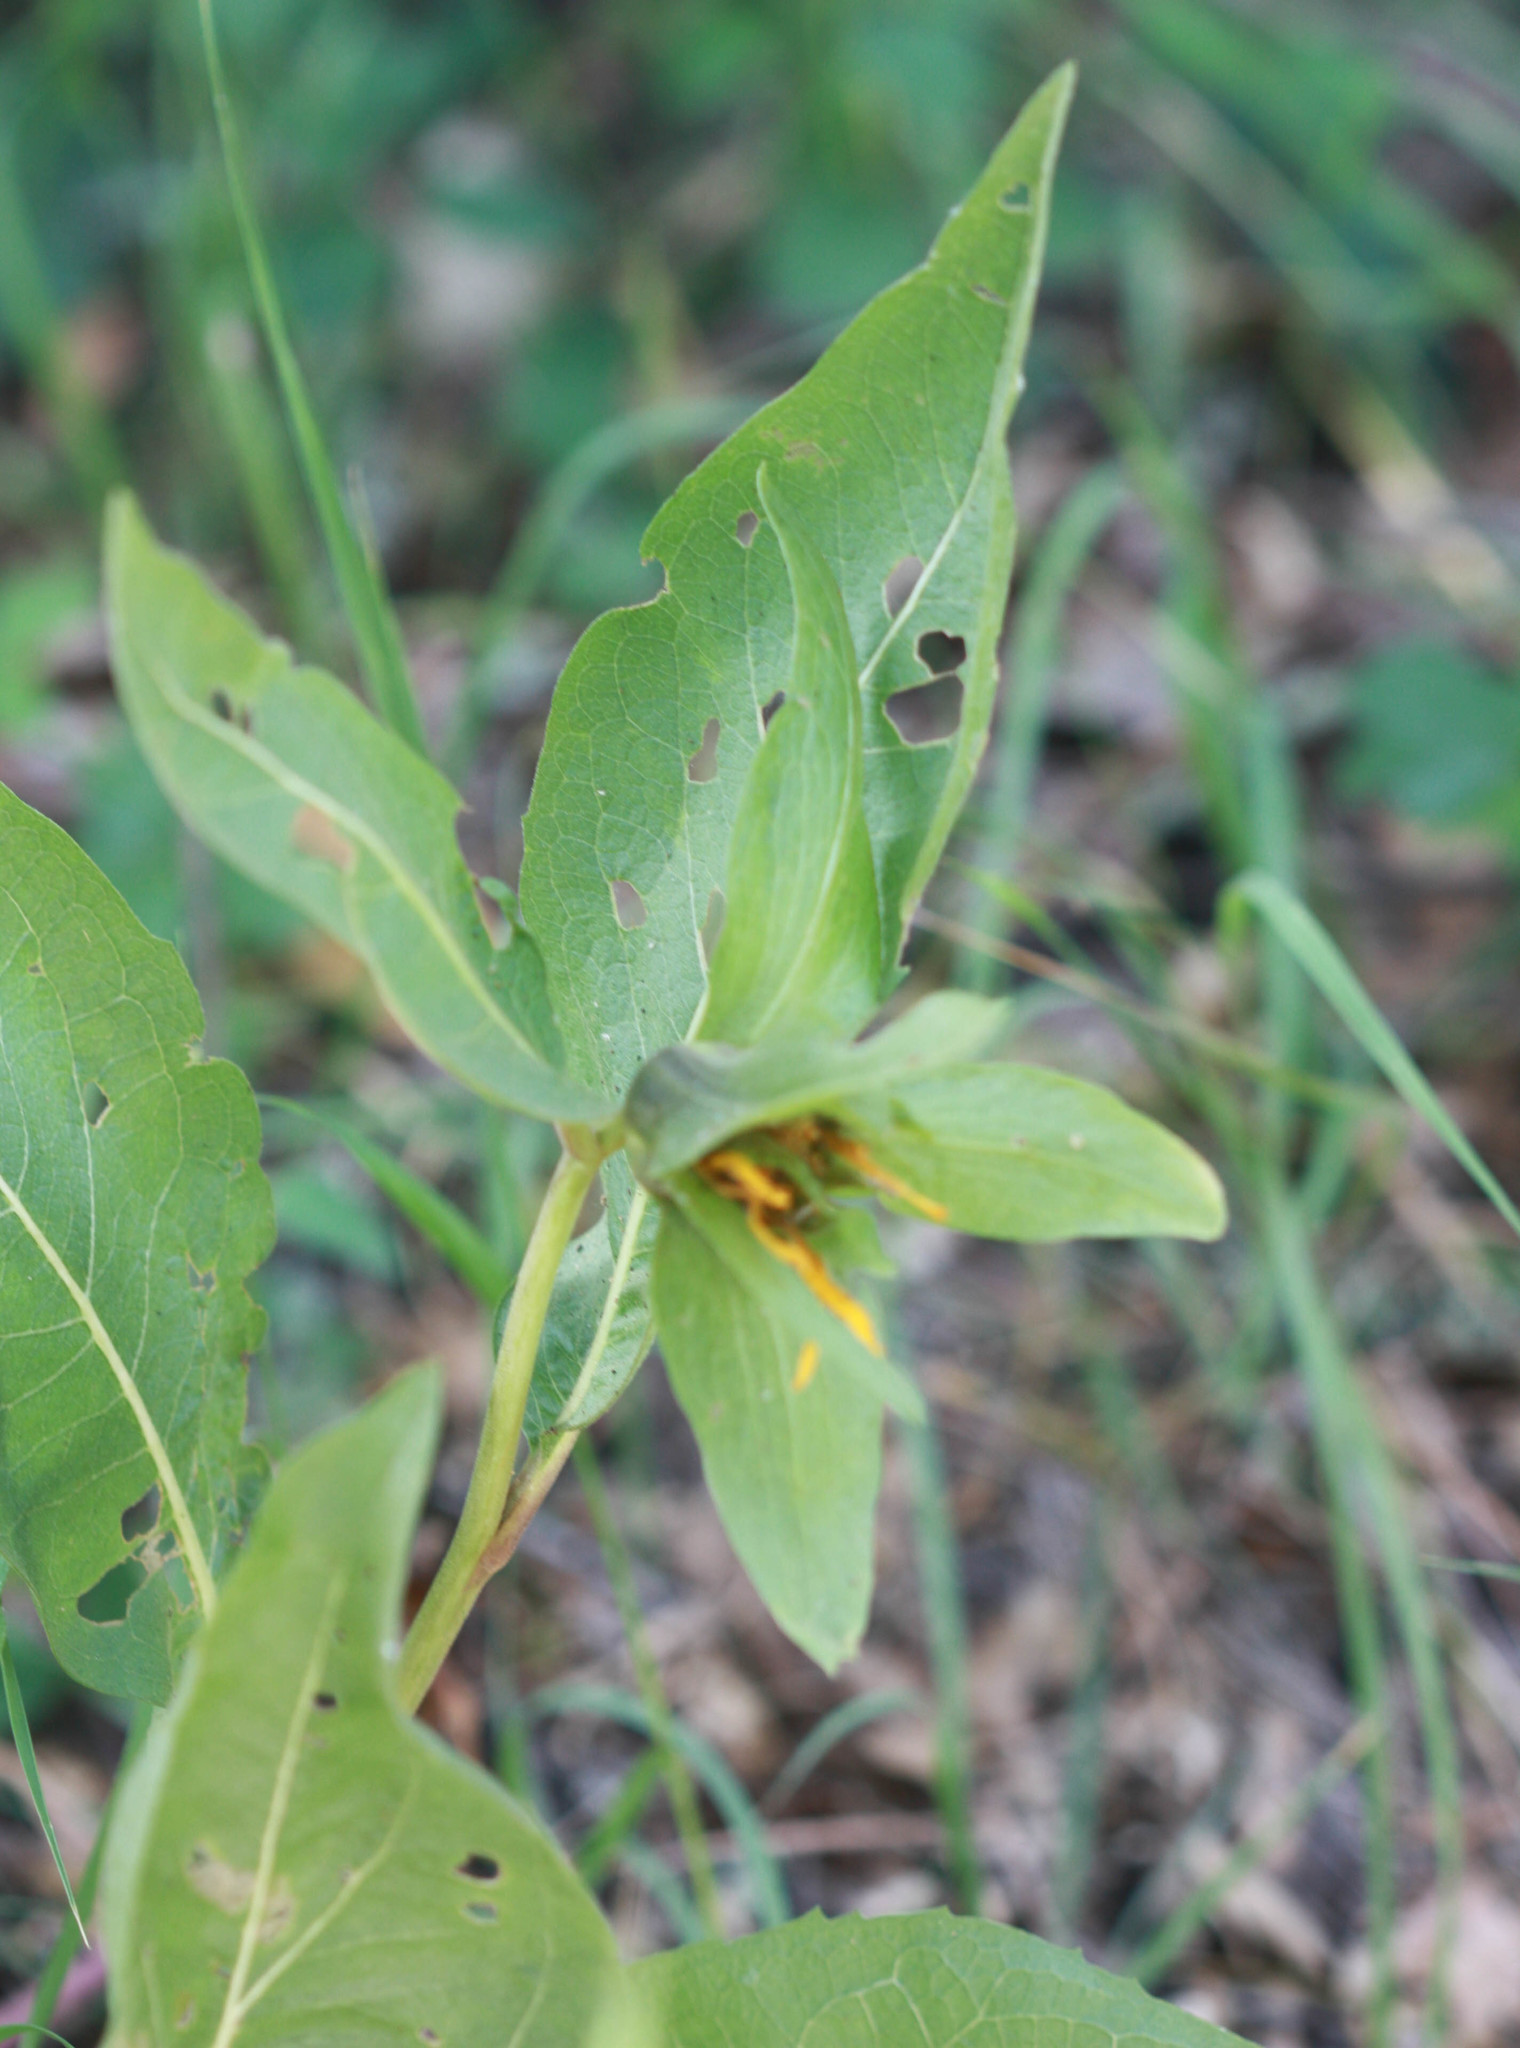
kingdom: Plantae
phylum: Tracheophyta
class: Magnoliopsida
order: Asterales
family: Asteraceae
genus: Wyethia
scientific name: Wyethia glabra
